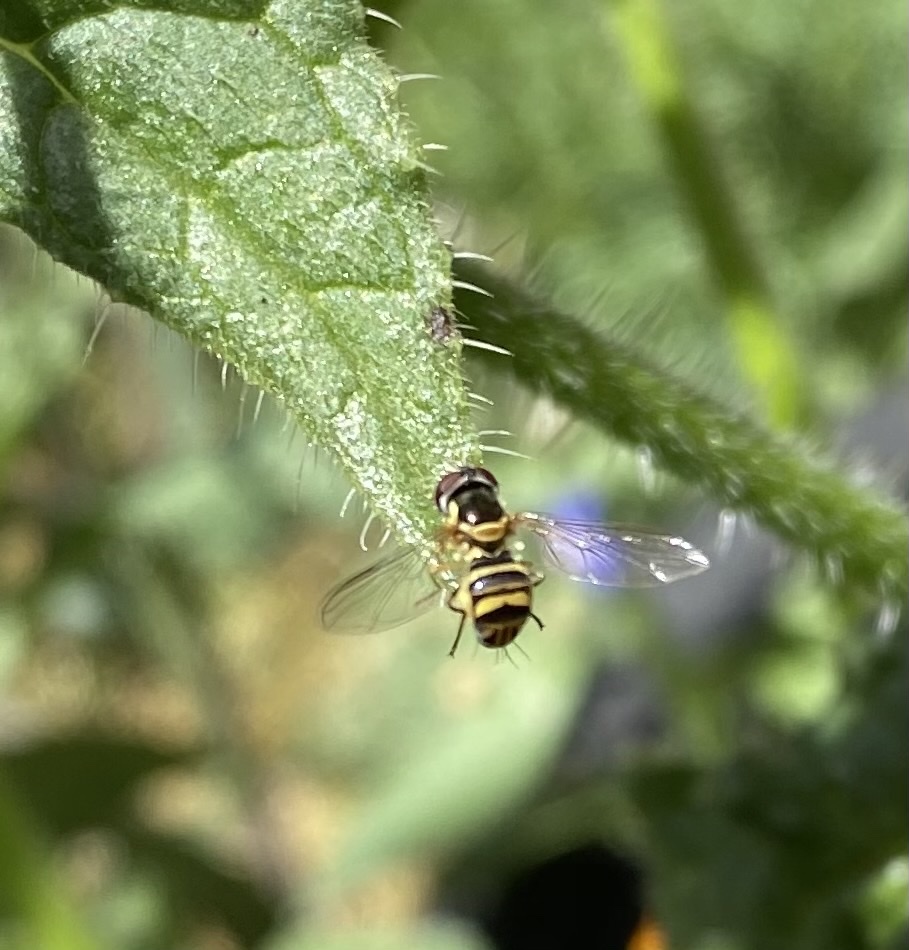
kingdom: Animalia
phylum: Arthropoda
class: Insecta
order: Diptera
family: Syrphidae
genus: Allograpta
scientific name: Allograpta obliqua
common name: Common oblique syrphid
